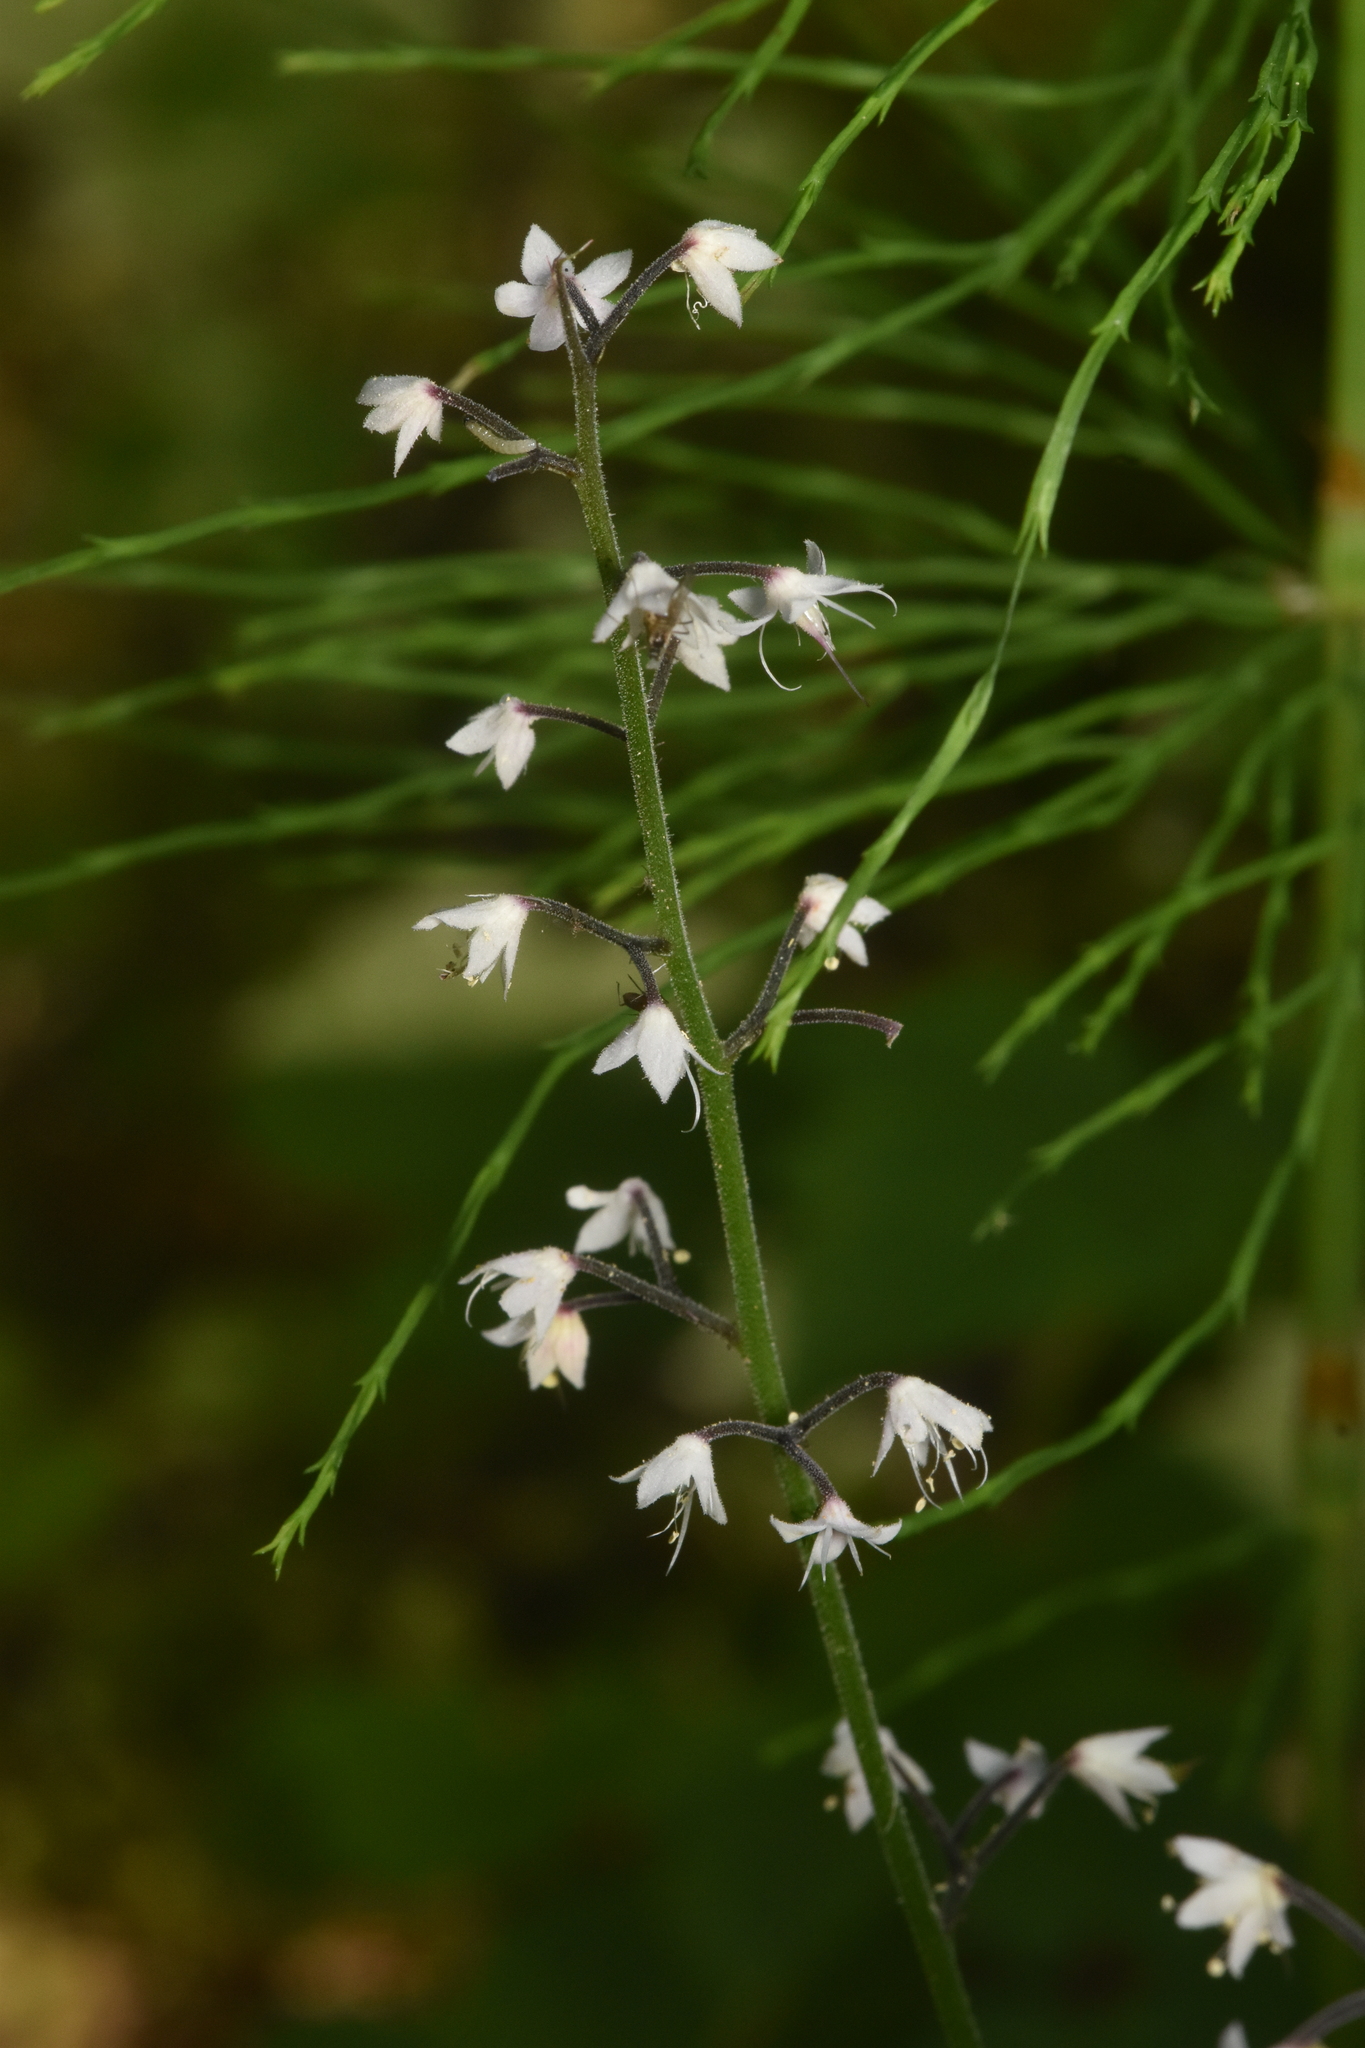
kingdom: Plantae
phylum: Tracheophyta
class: Magnoliopsida
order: Saxifragales
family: Saxifragaceae
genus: Tiarella
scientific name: Tiarella trifoliata
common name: Sugar-scoop
